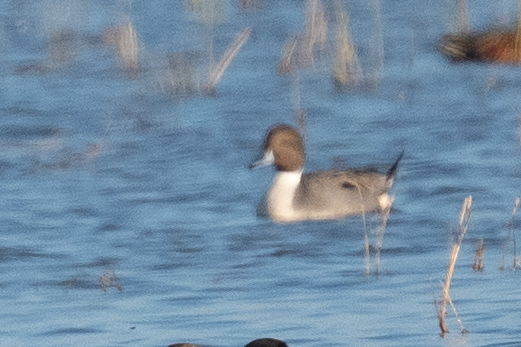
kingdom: Animalia
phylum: Chordata
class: Aves
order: Anseriformes
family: Anatidae
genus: Anas
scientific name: Anas acuta
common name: Northern pintail
